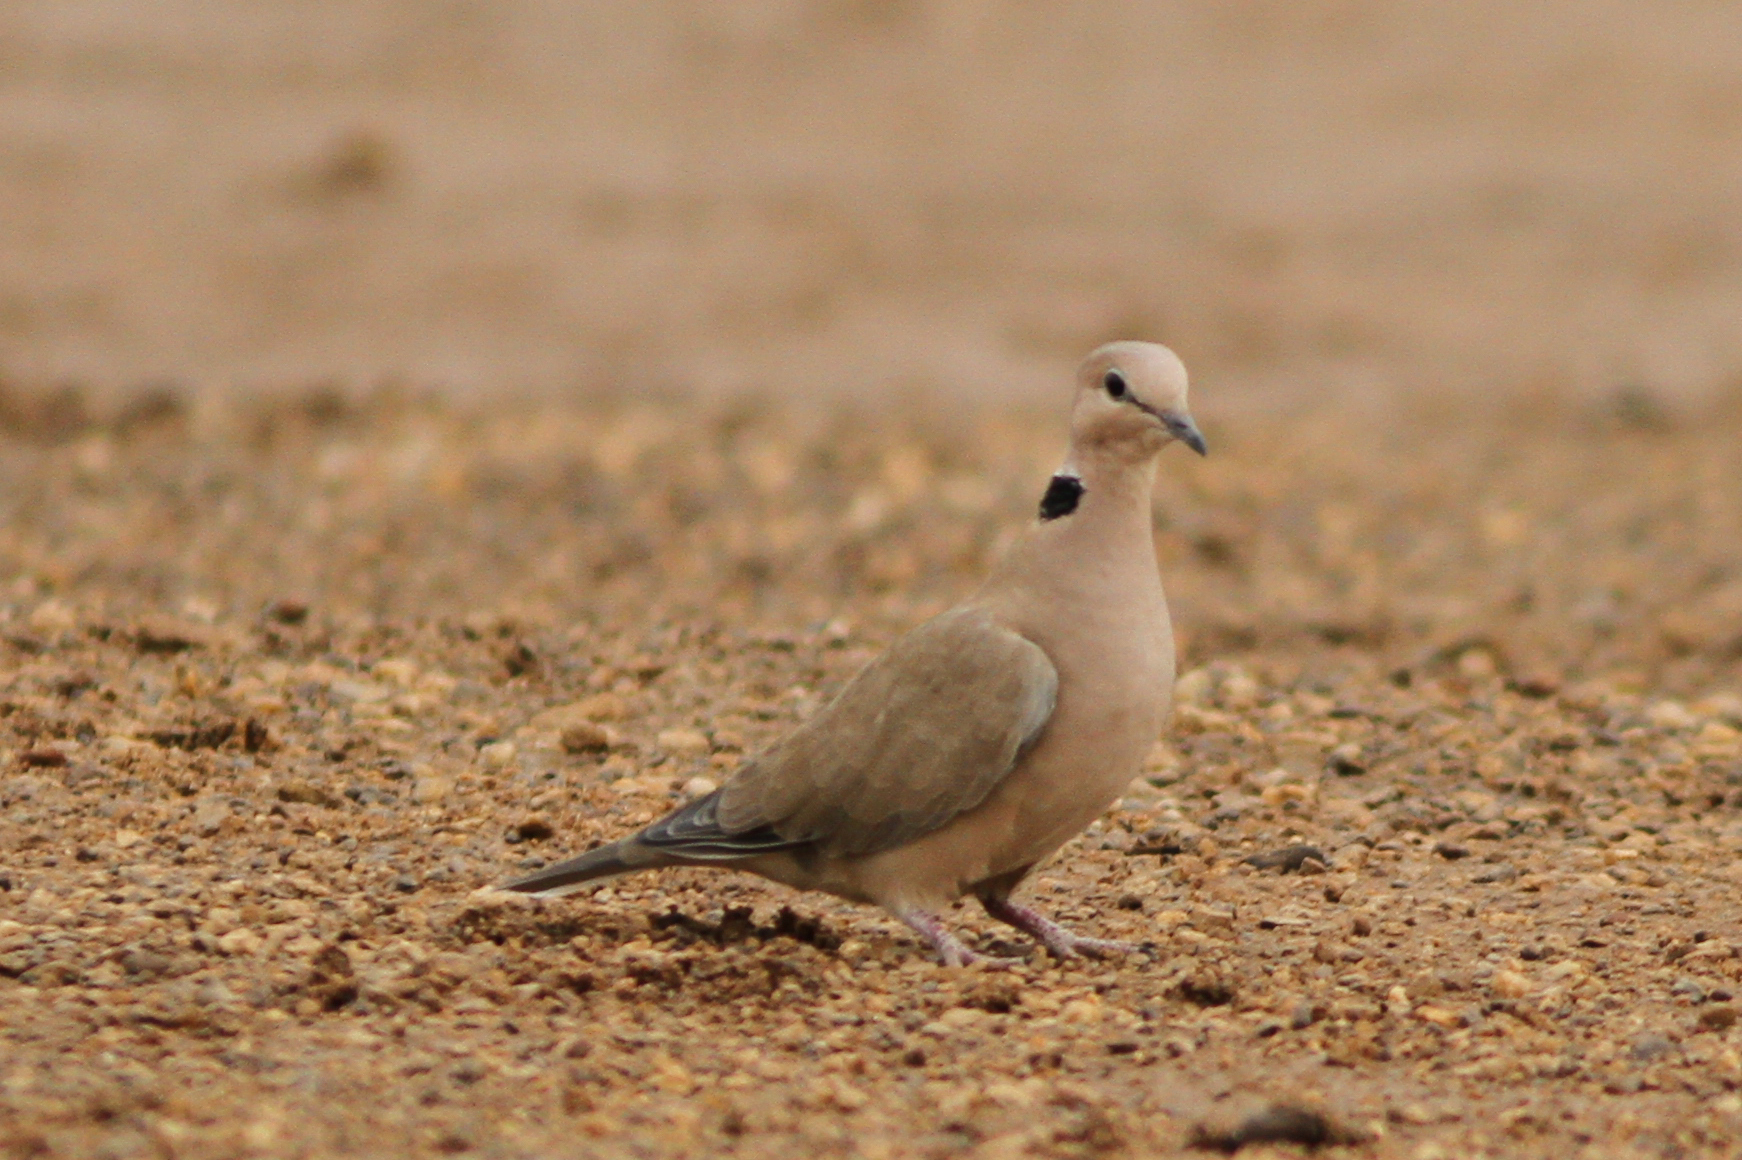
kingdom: Animalia
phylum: Chordata
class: Aves
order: Columbiformes
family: Columbidae
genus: Streptopelia
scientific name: Streptopelia vinacea
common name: Vinaceous dove
